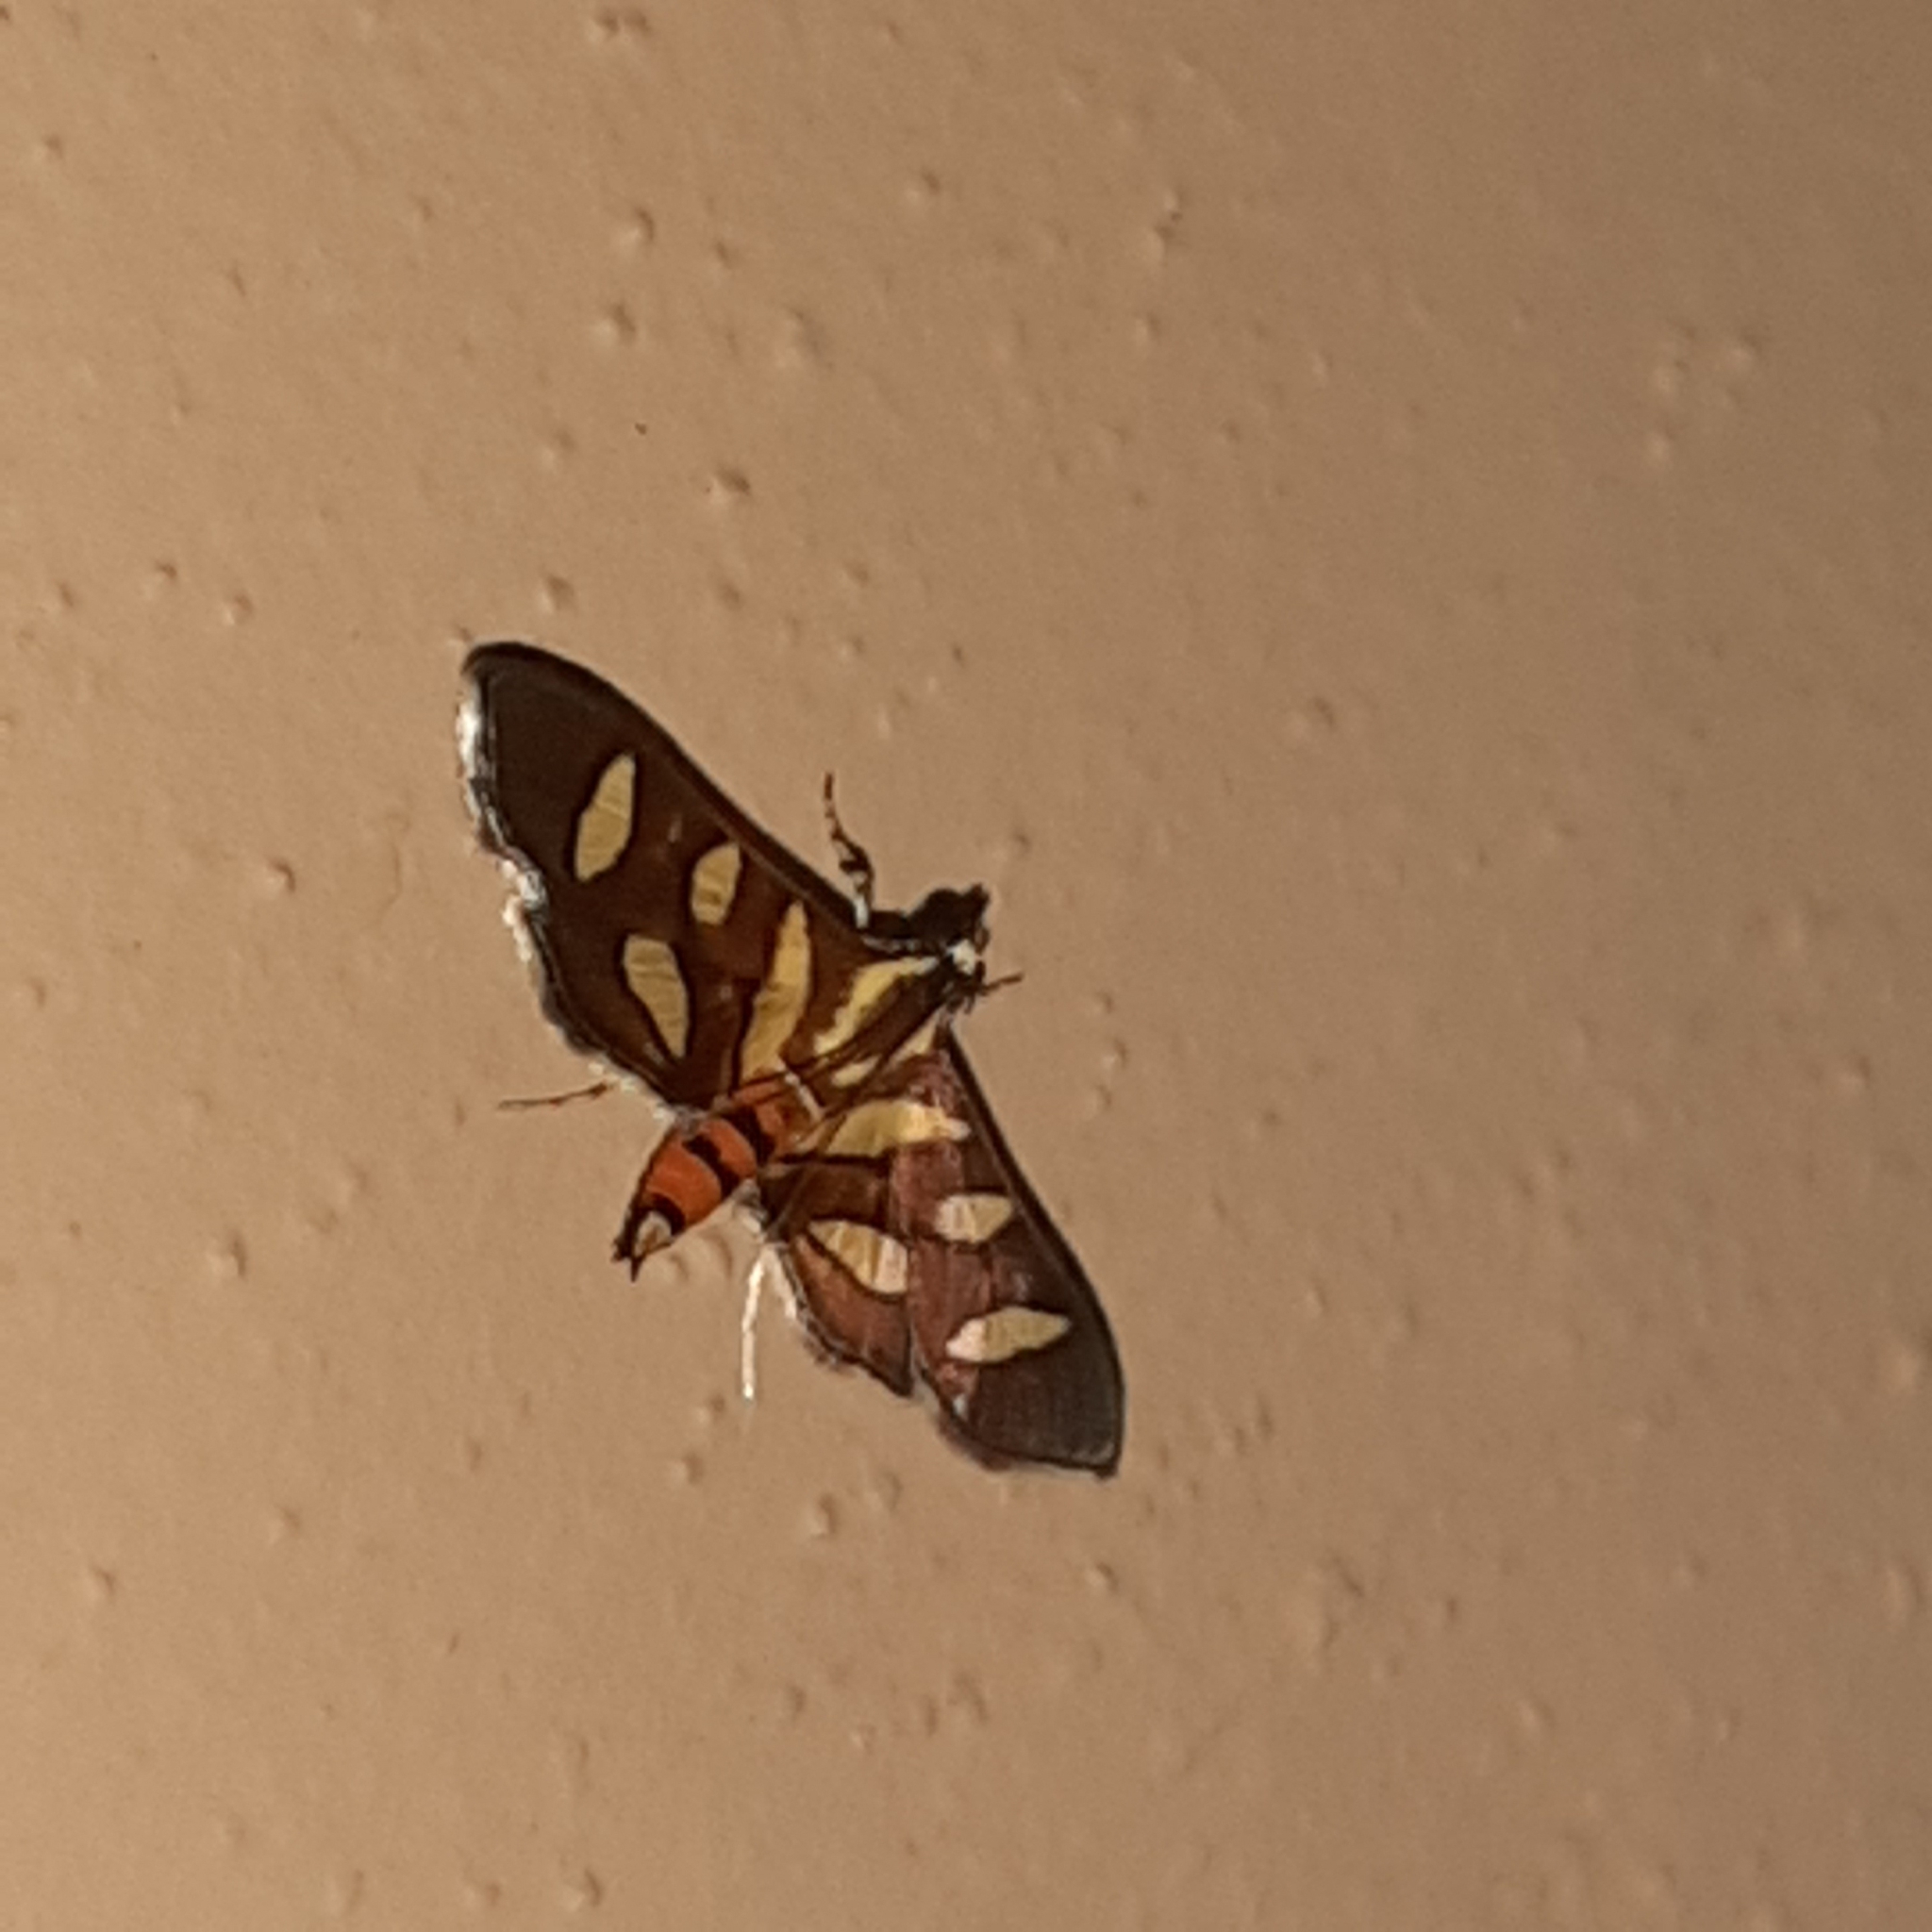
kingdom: Animalia
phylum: Arthropoda
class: Insecta
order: Lepidoptera
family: Crambidae
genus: Syngamia
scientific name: Syngamia florella
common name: Orange-spotted flower moth
